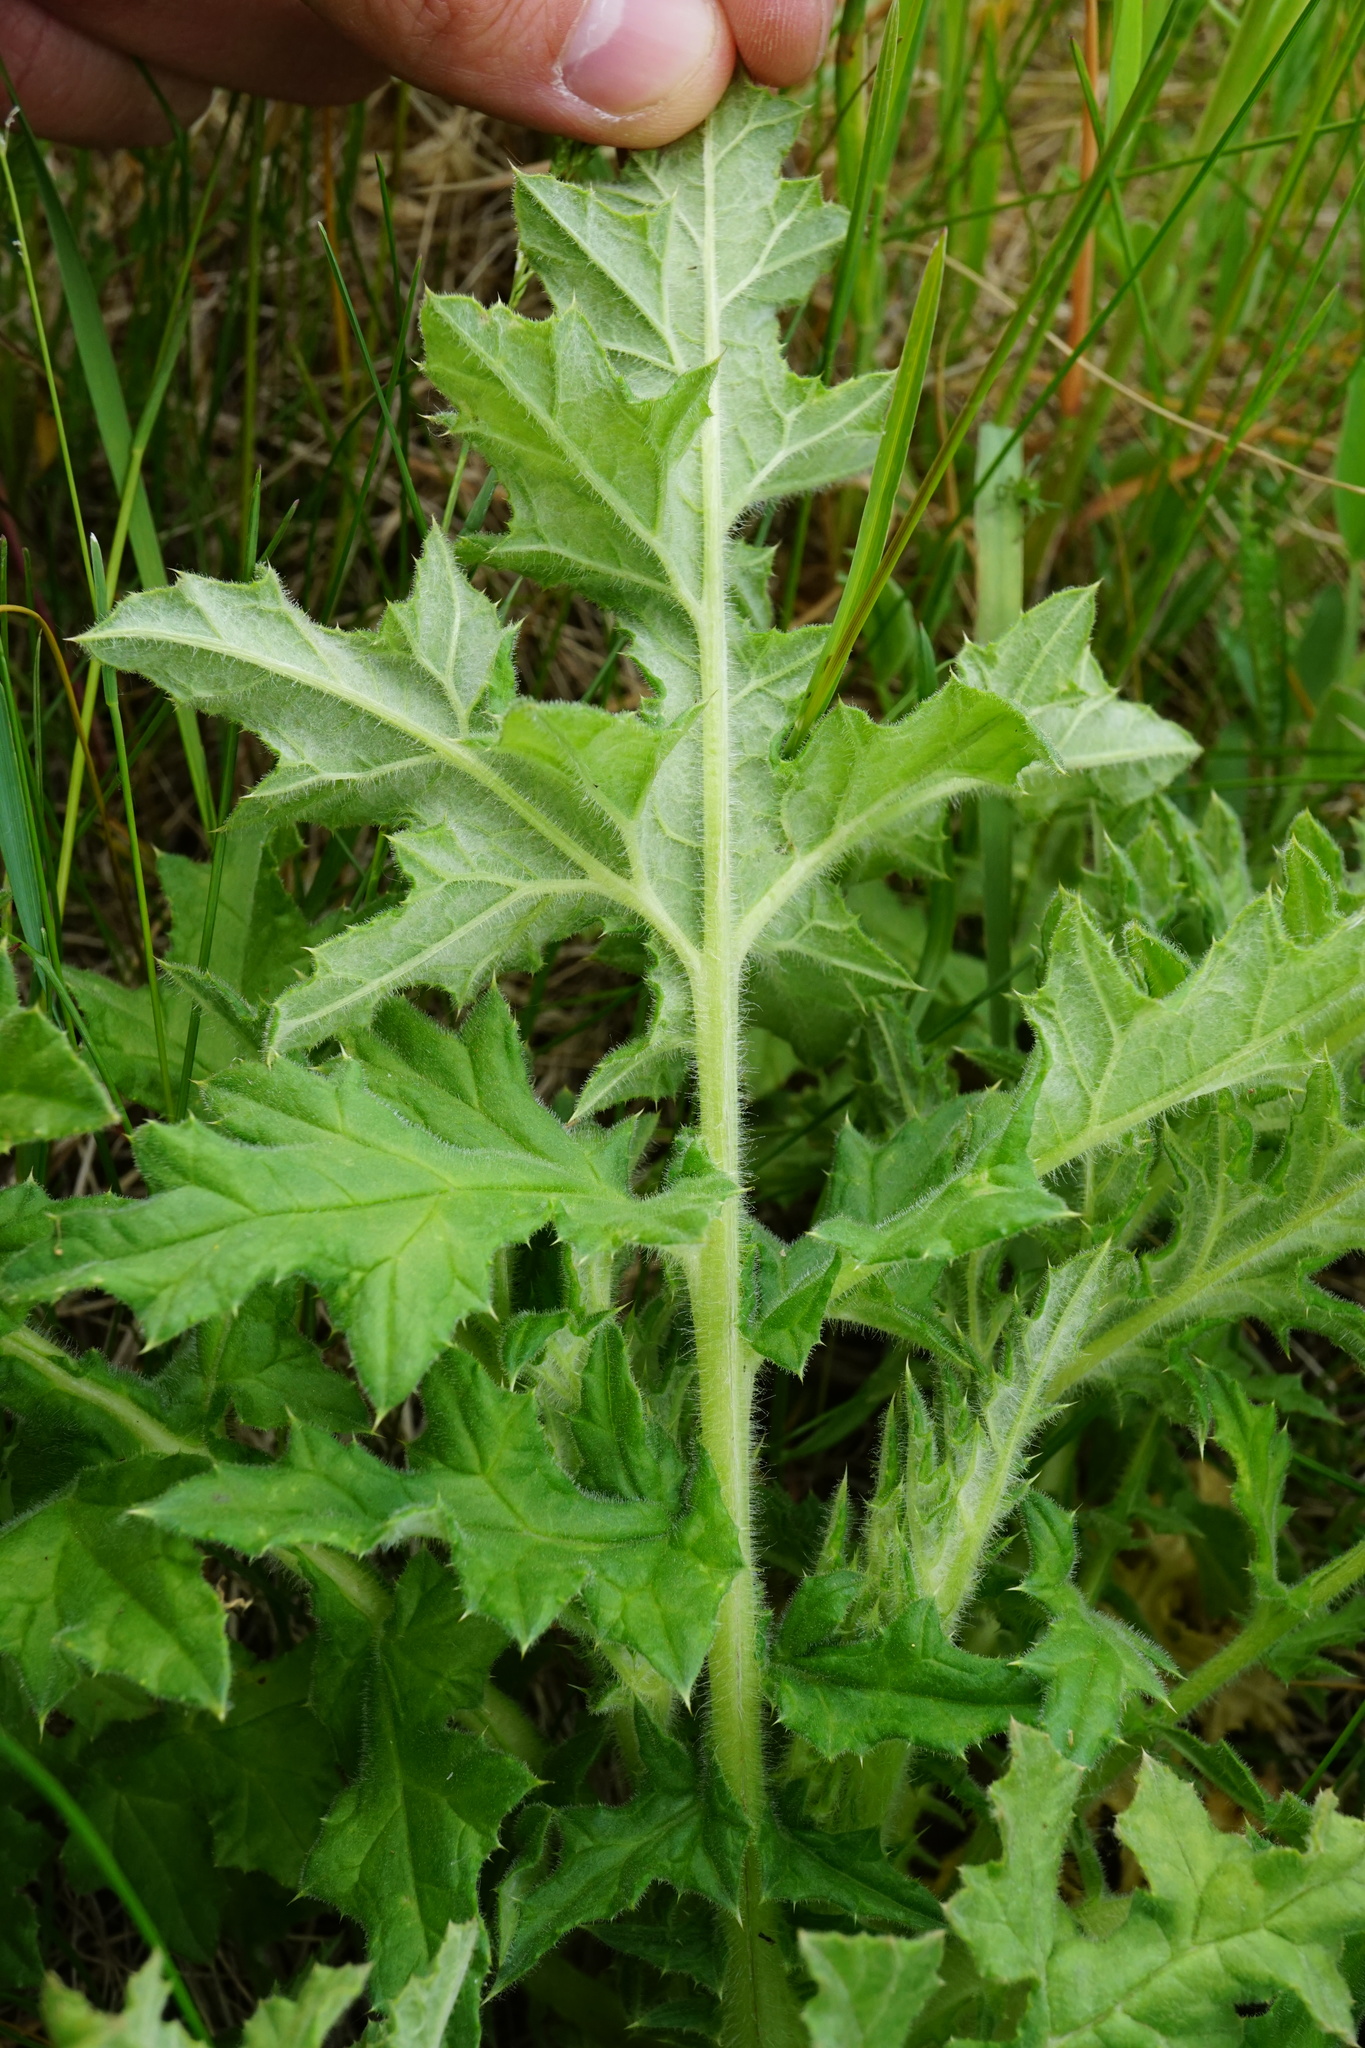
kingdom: Plantae
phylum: Tracheophyta
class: Magnoliopsida
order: Asterales
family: Asteraceae
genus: Echinops
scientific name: Echinops sphaerocephalus
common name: Glandular globe-thistle
